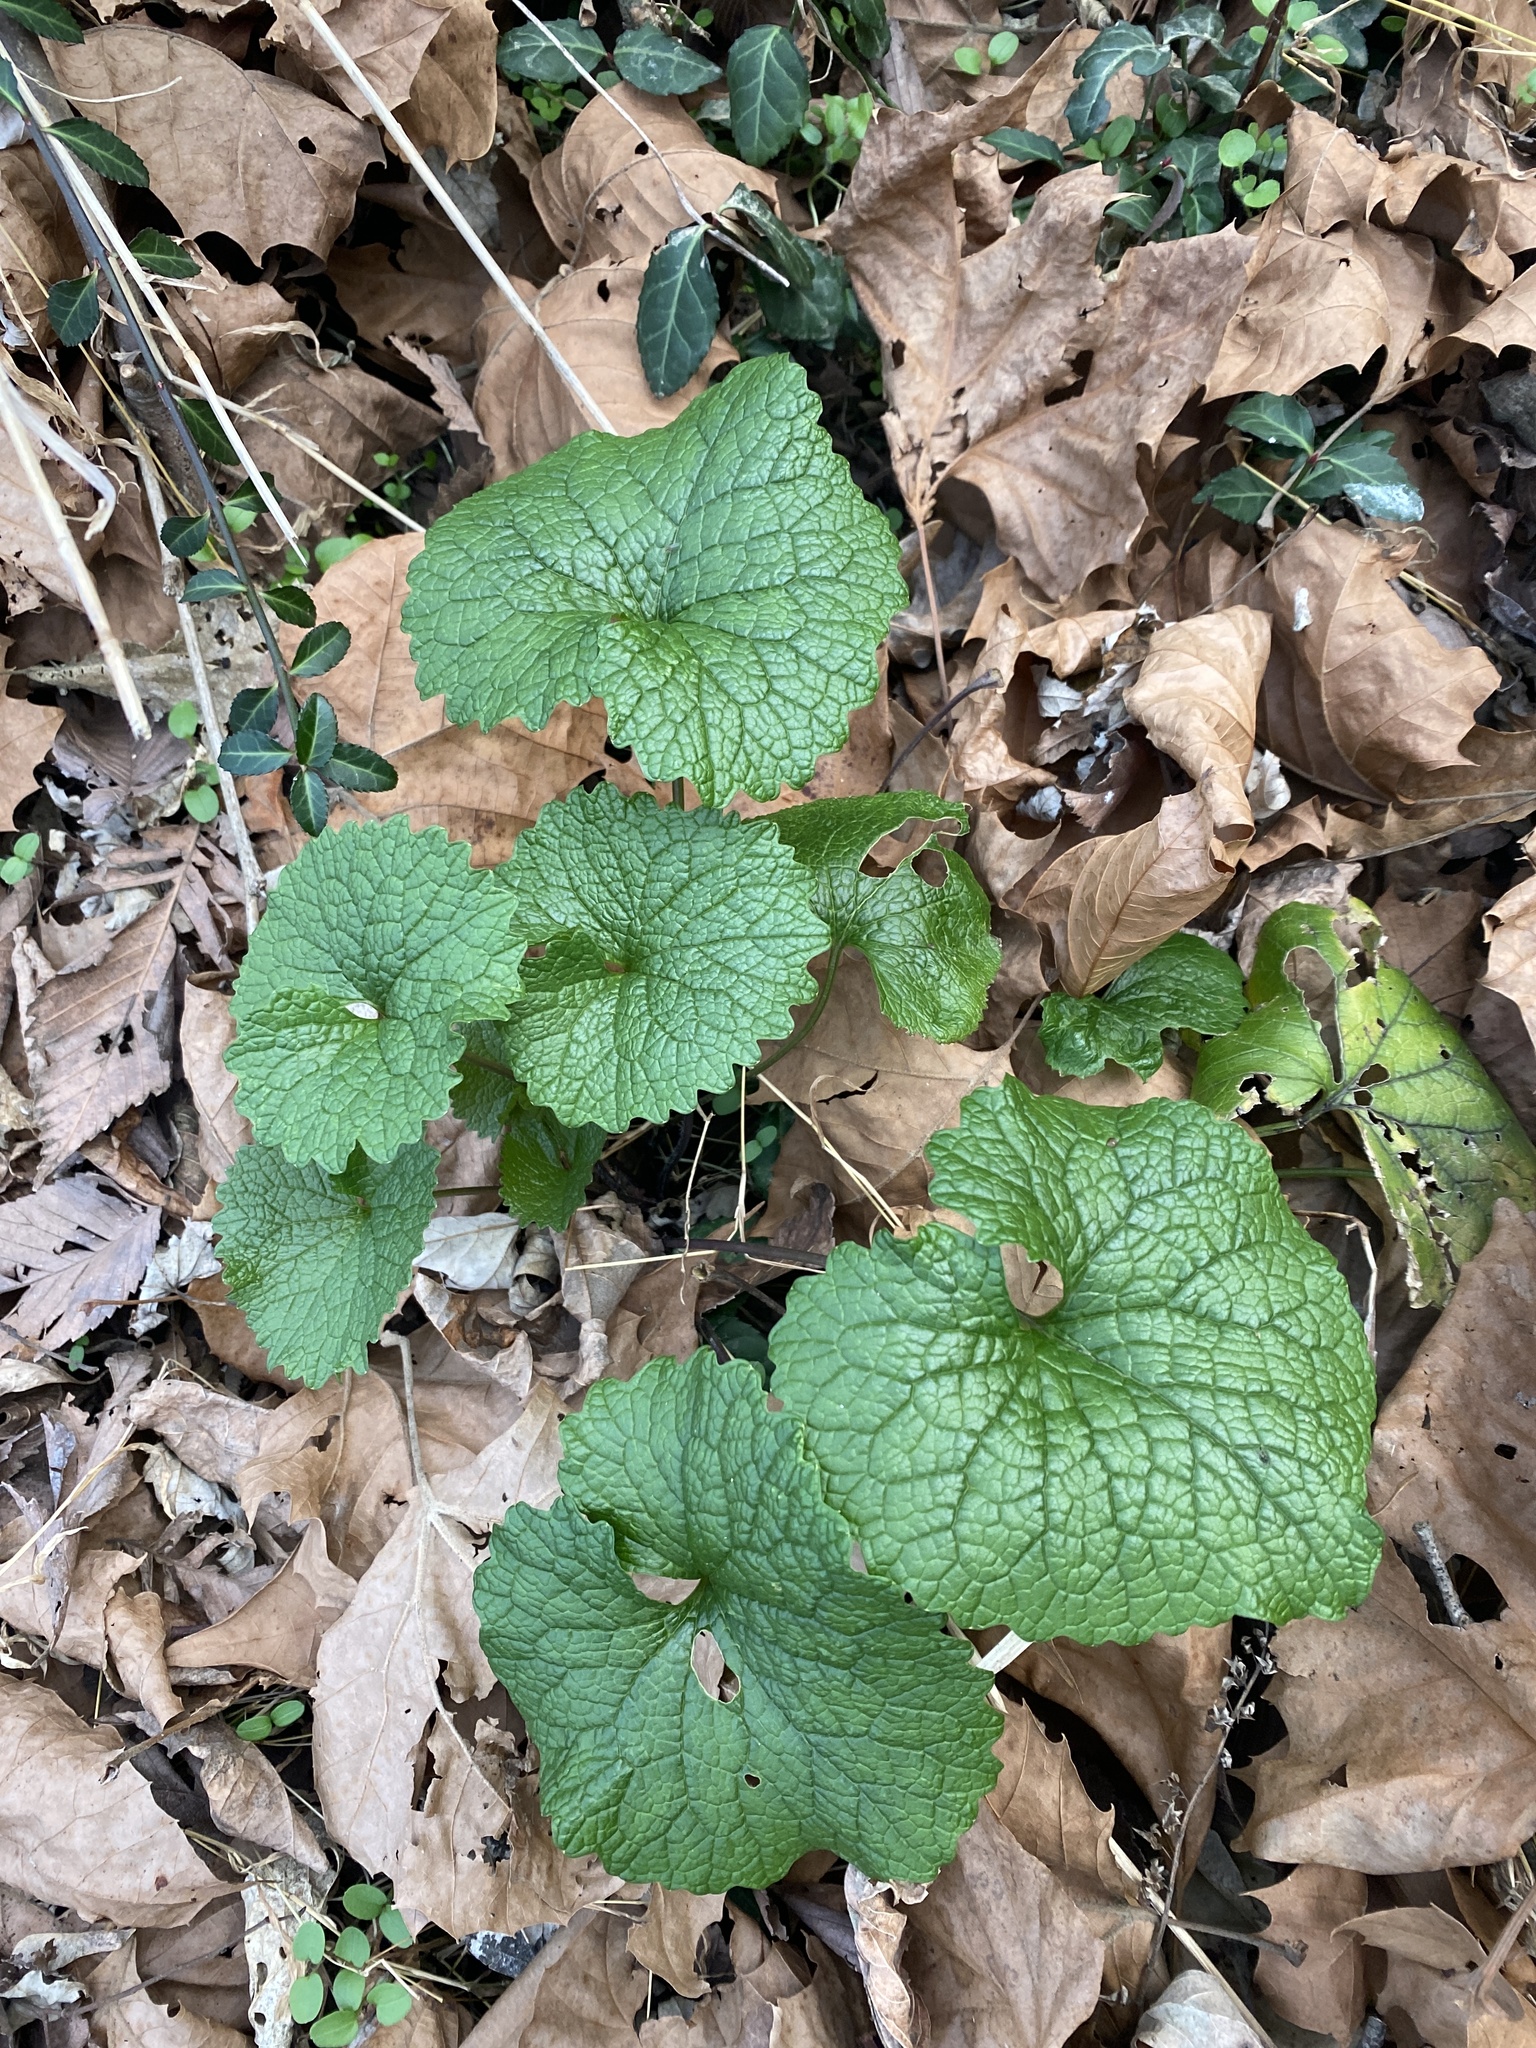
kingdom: Plantae
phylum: Tracheophyta
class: Magnoliopsida
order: Brassicales
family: Brassicaceae
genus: Alliaria
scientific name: Alliaria petiolata
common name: Garlic mustard
